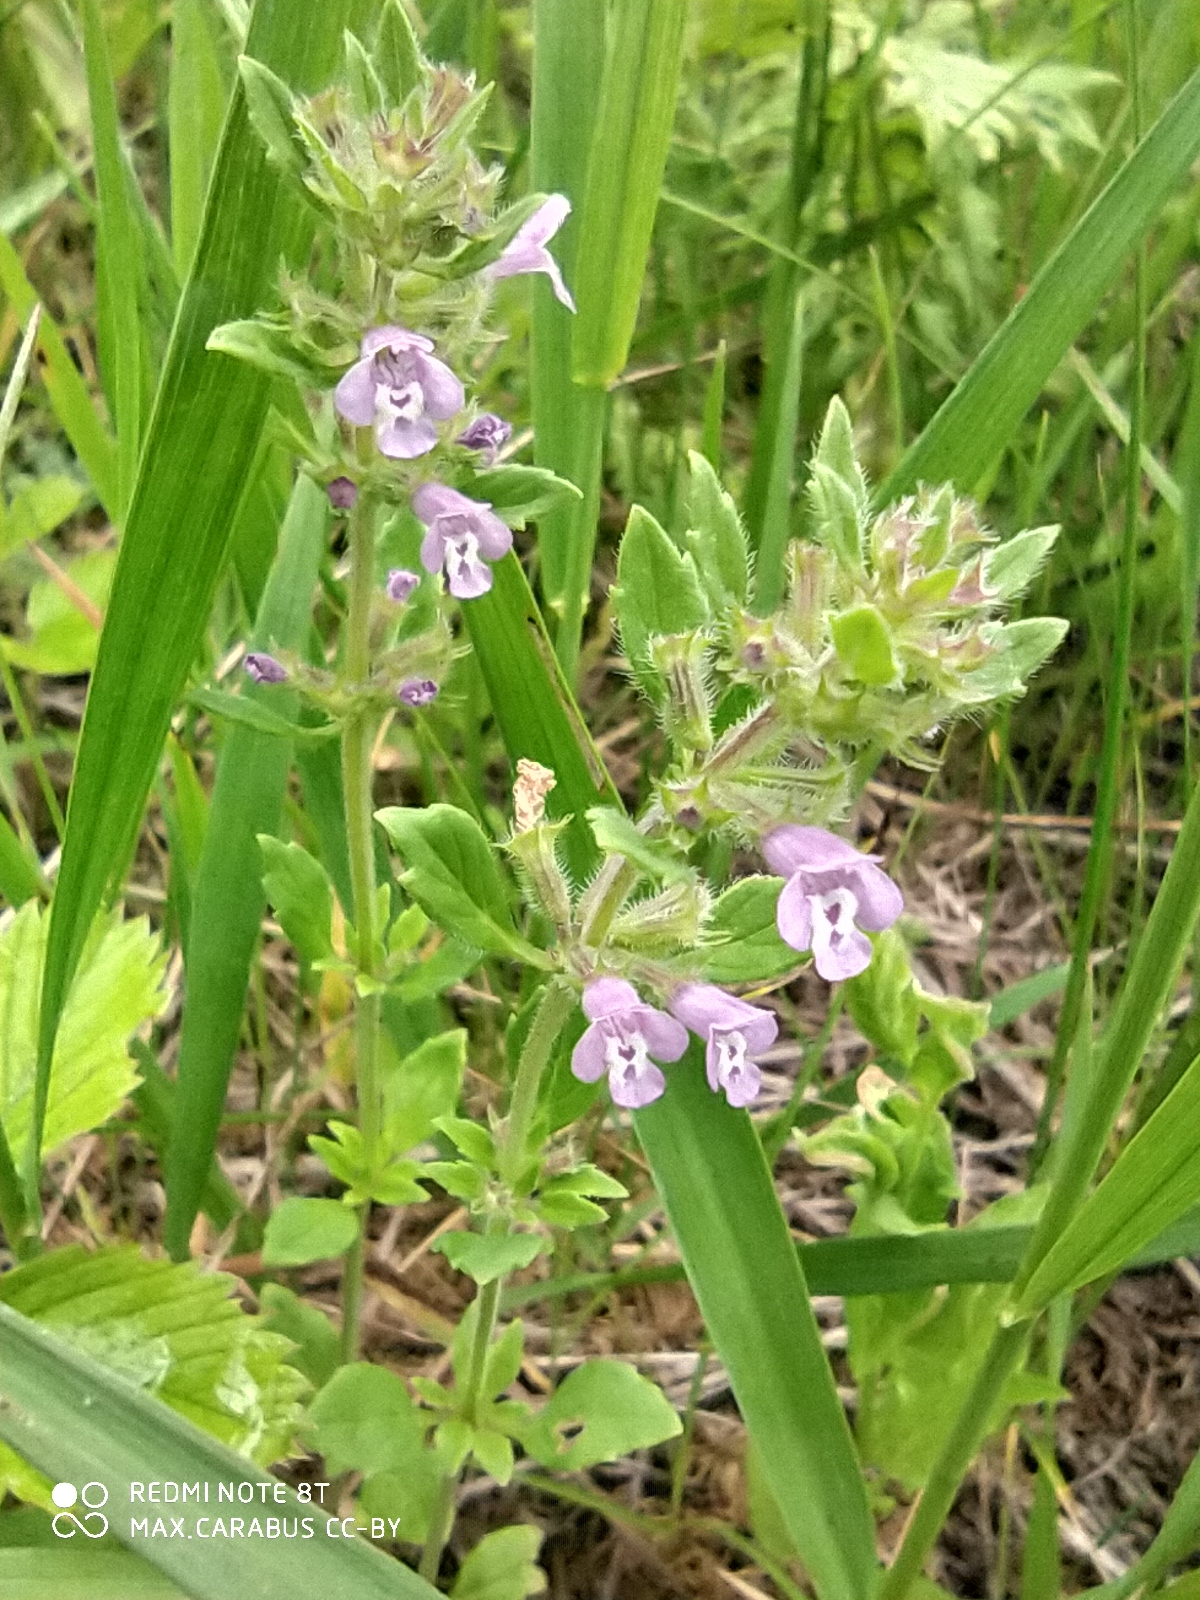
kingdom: Plantae
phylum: Tracheophyta
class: Magnoliopsida
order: Lamiales
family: Lamiaceae
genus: Clinopodium
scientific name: Clinopodium acinos
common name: Basil thyme
